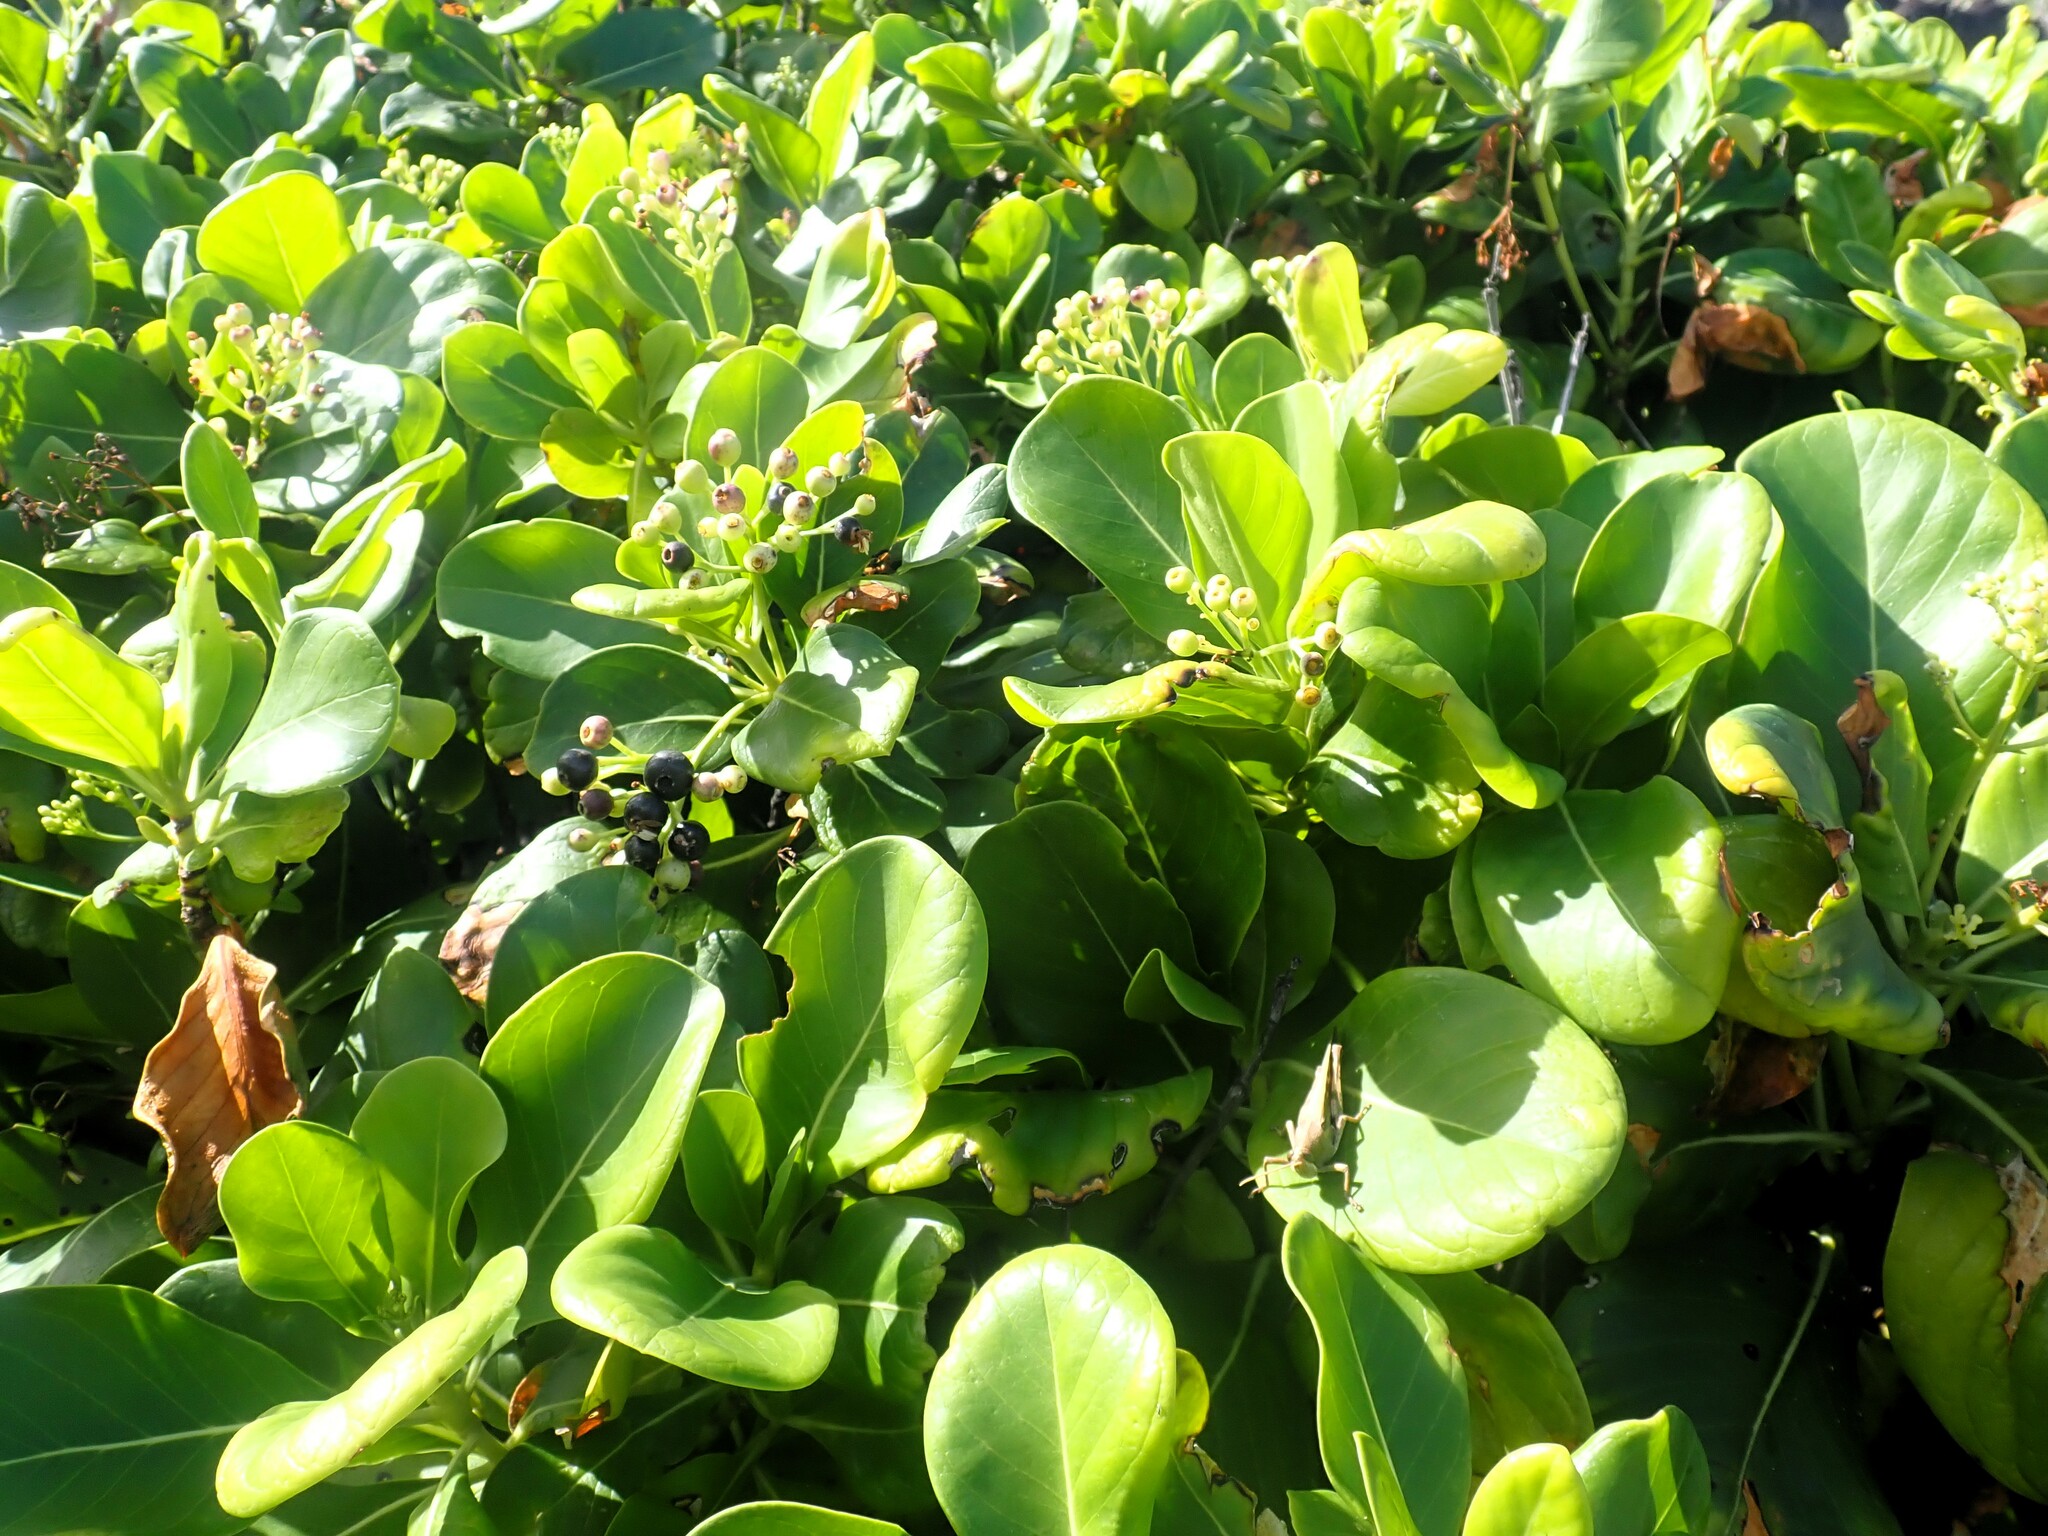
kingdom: Plantae
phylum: Tracheophyta
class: Magnoliopsida
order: Gentianales
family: Rubiaceae
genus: Erithalis
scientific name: Erithalis fruticosa
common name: Candlewood
